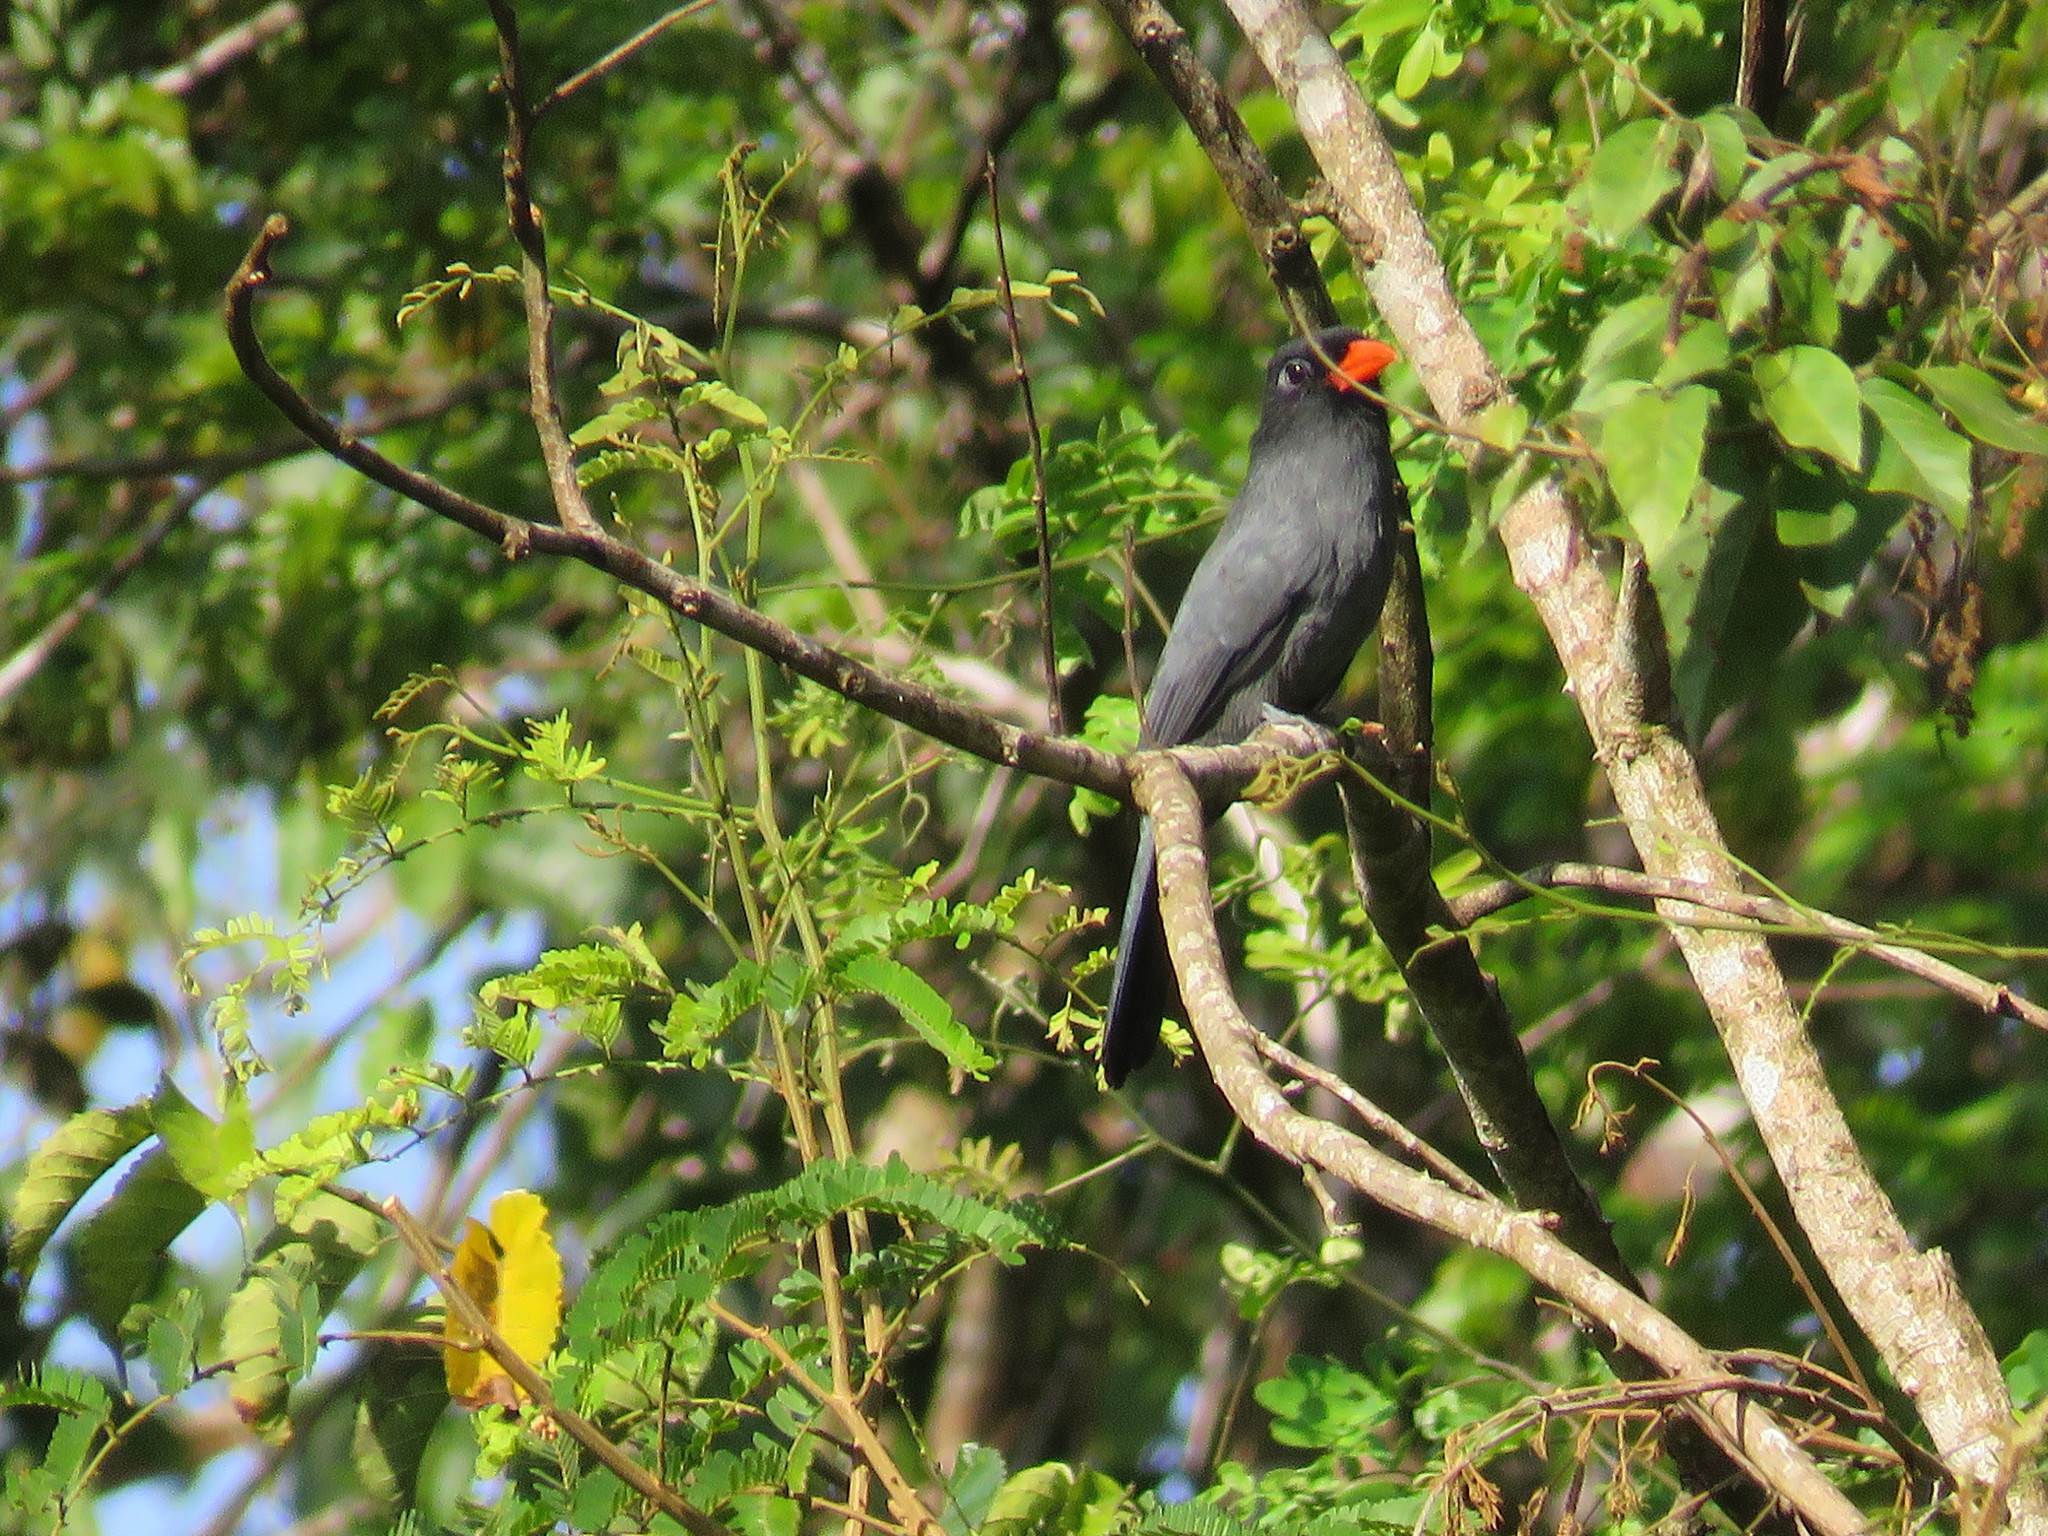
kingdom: Animalia
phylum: Chordata
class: Aves
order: Piciformes
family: Bucconidae
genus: Monasa
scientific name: Monasa nigrifrons
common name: Black-fronted nunbird
